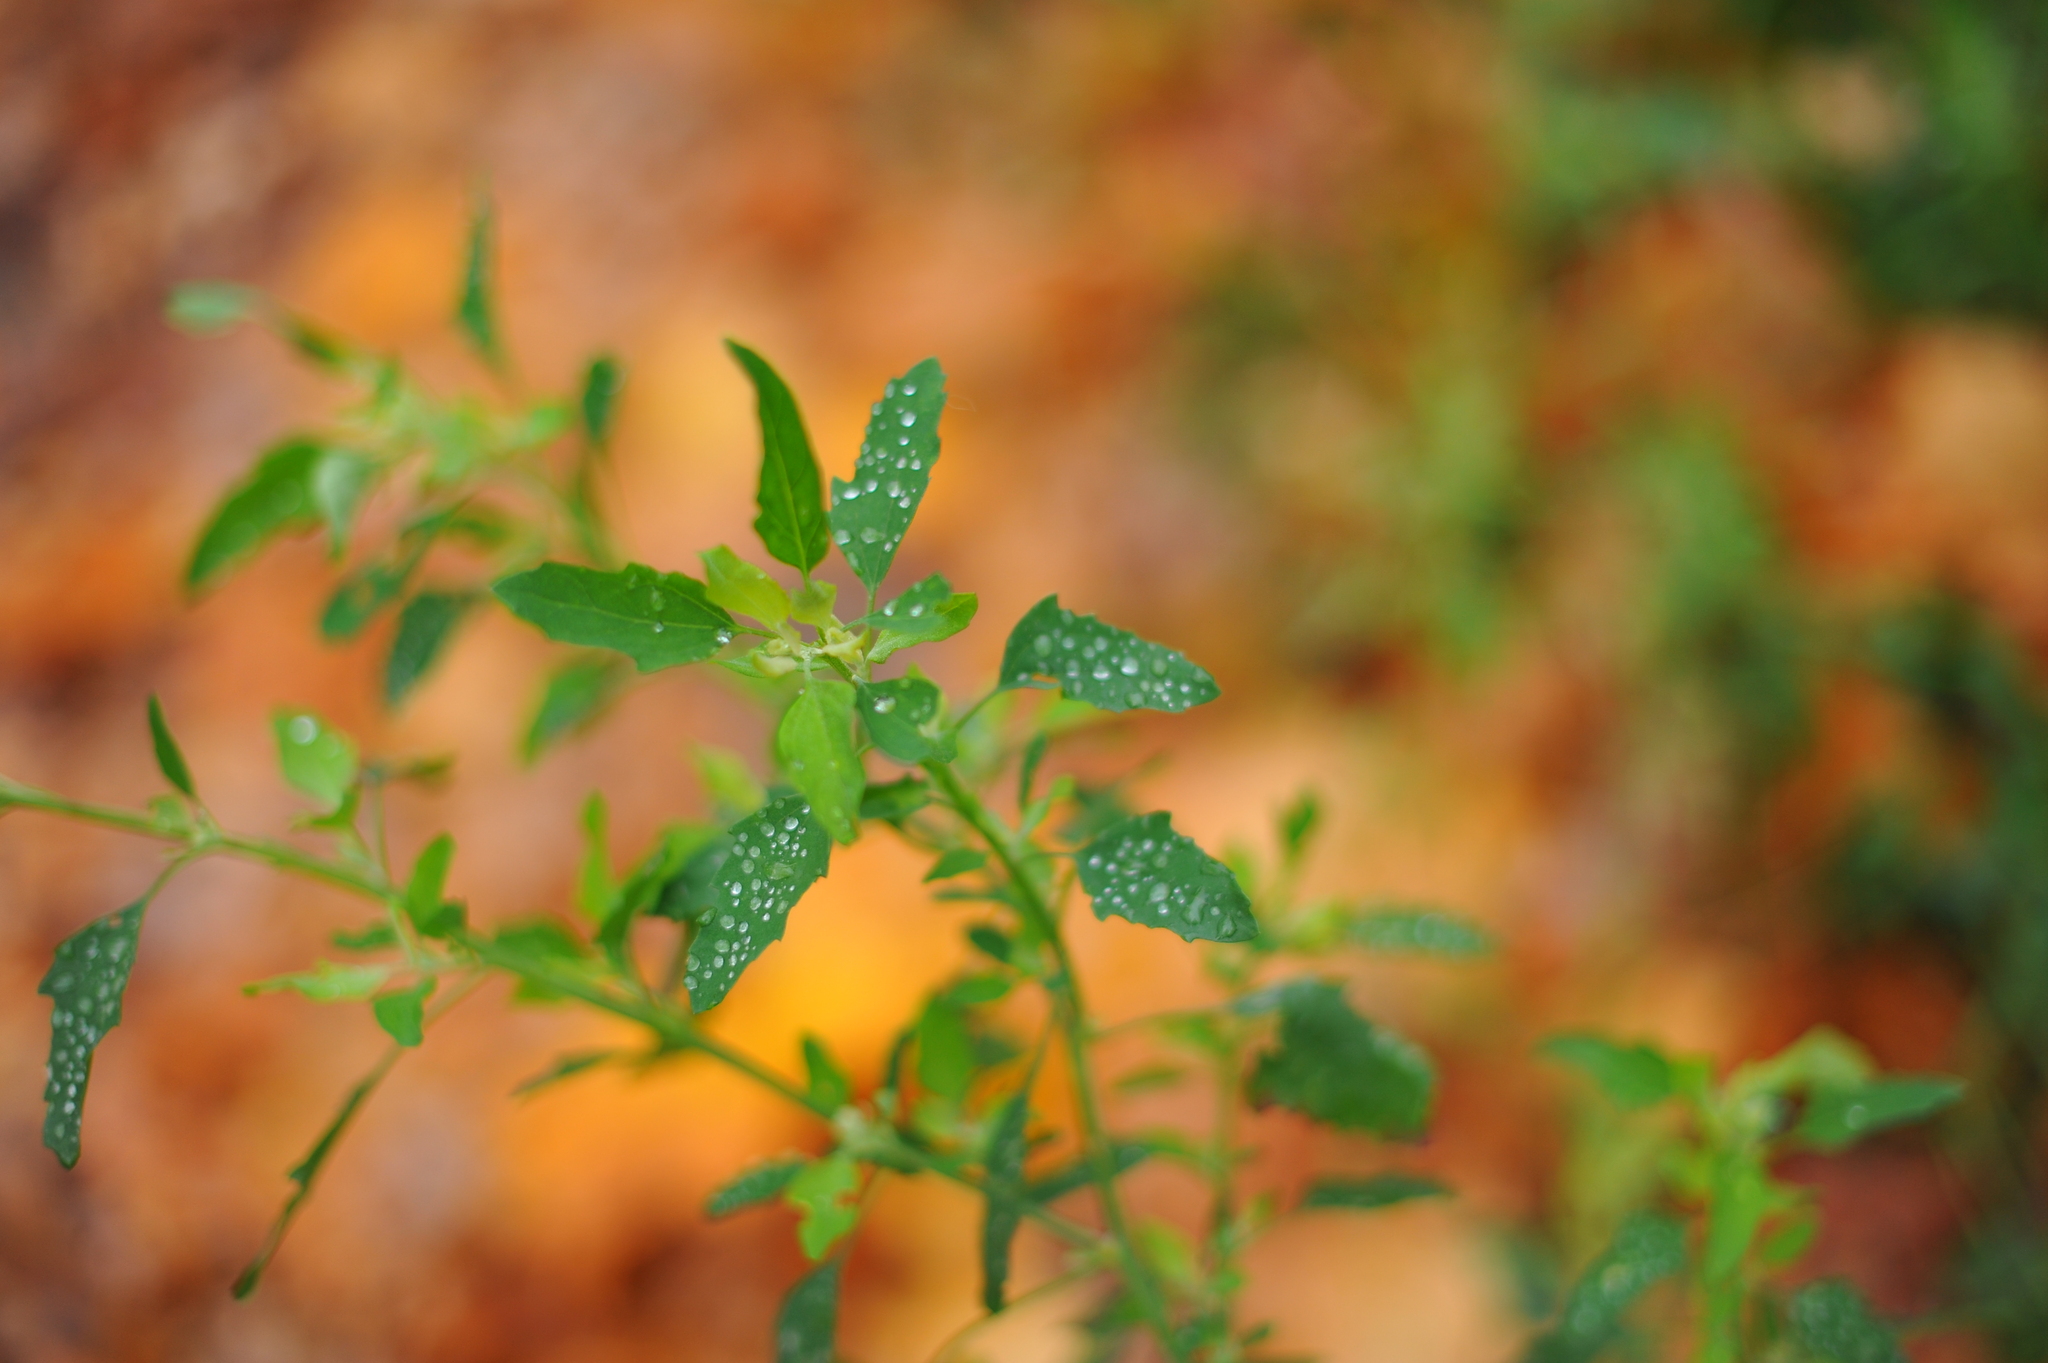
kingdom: Plantae
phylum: Tracheophyta
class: Magnoliopsida
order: Caryophyllales
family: Amaranthaceae
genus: Chenopodium
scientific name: Chenopodium album
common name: Fat-hen
